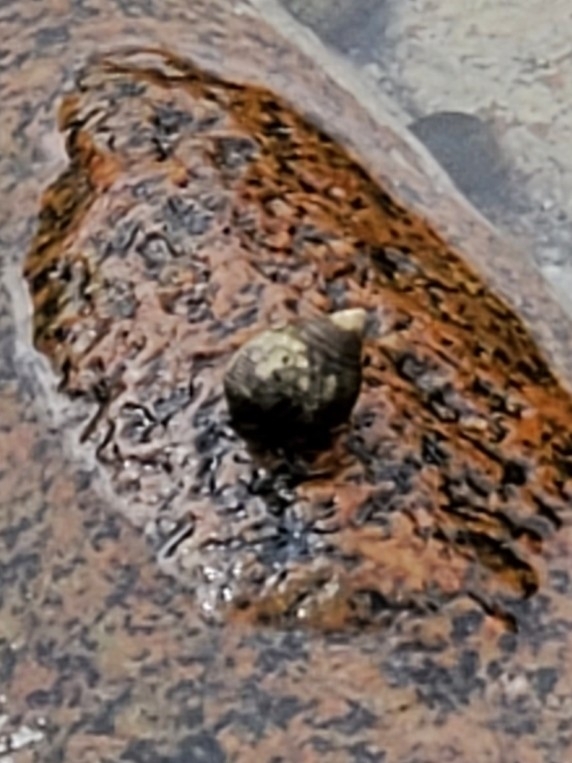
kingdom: Animalia
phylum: Mollusca
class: Gastropoda
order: Littorinimorpha
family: Littorinidae
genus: Littorina
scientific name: Littorina littorea
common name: Common periwinkle
